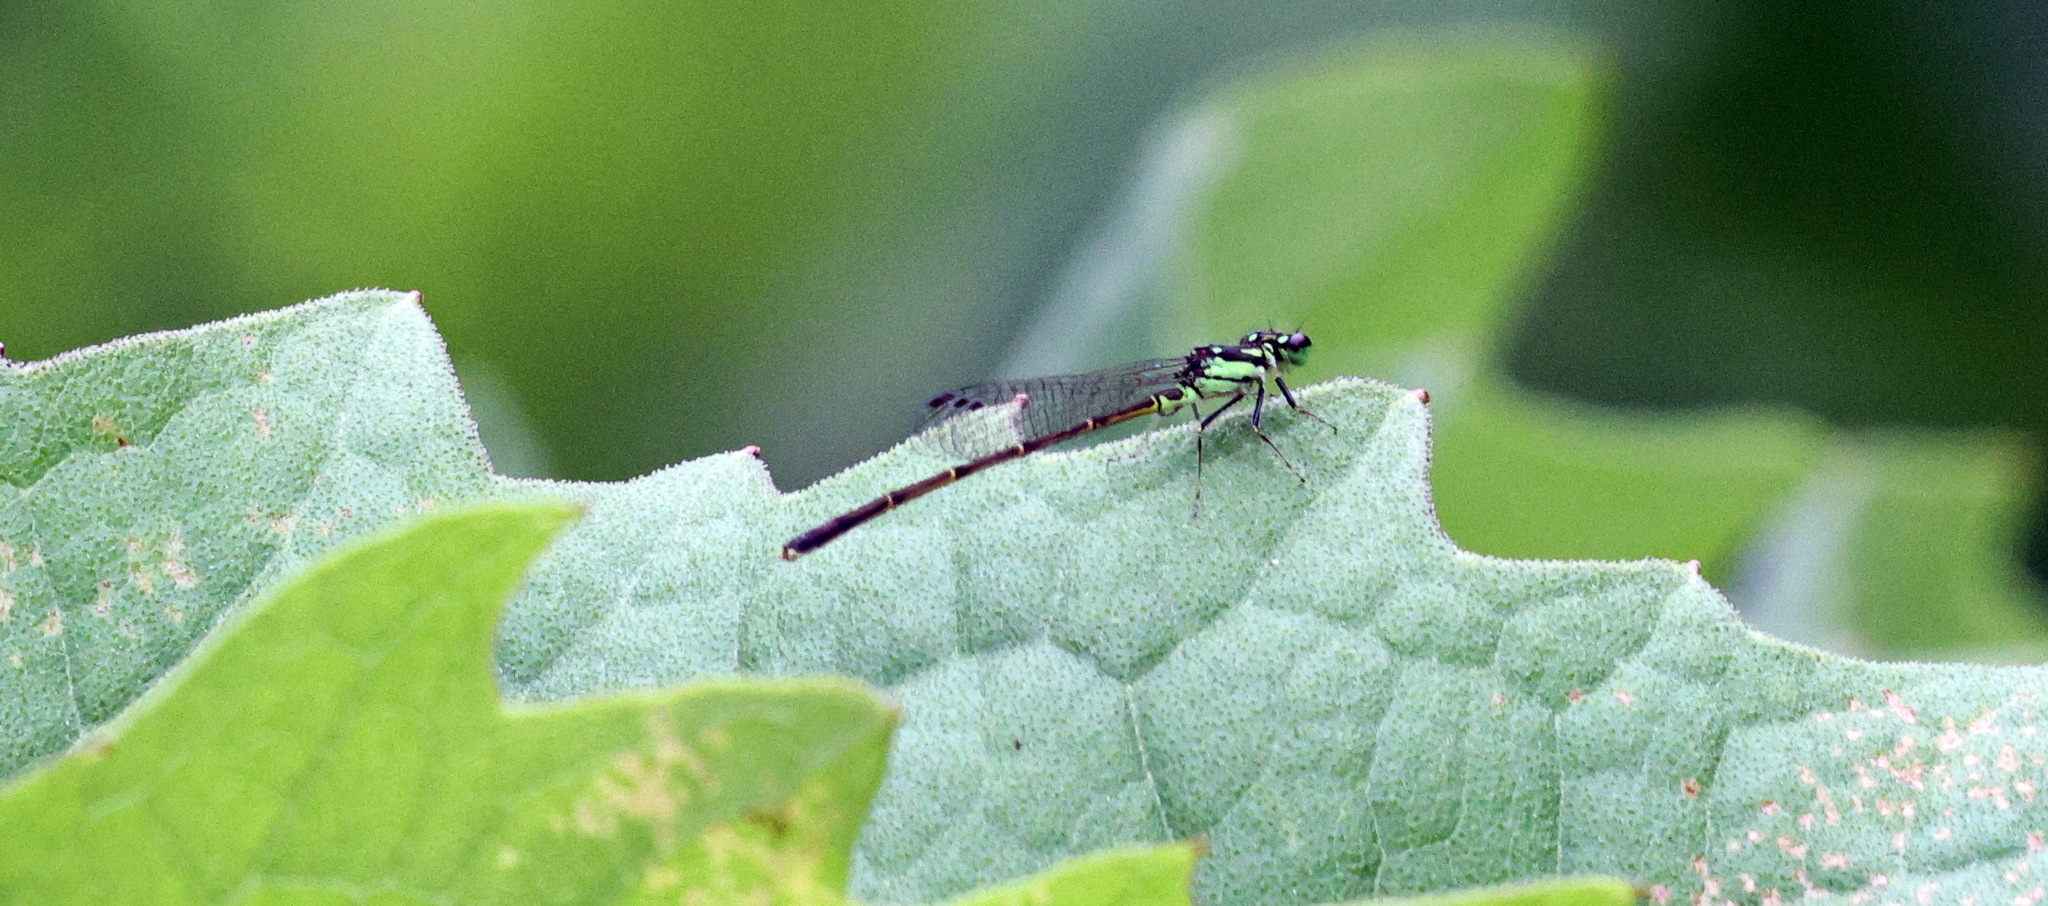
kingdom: Animalia
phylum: Arthropoda
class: Insecta
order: Odonata
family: Coenagrionidae
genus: Ischnura
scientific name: Ischnura posita
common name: Fragile forktail
